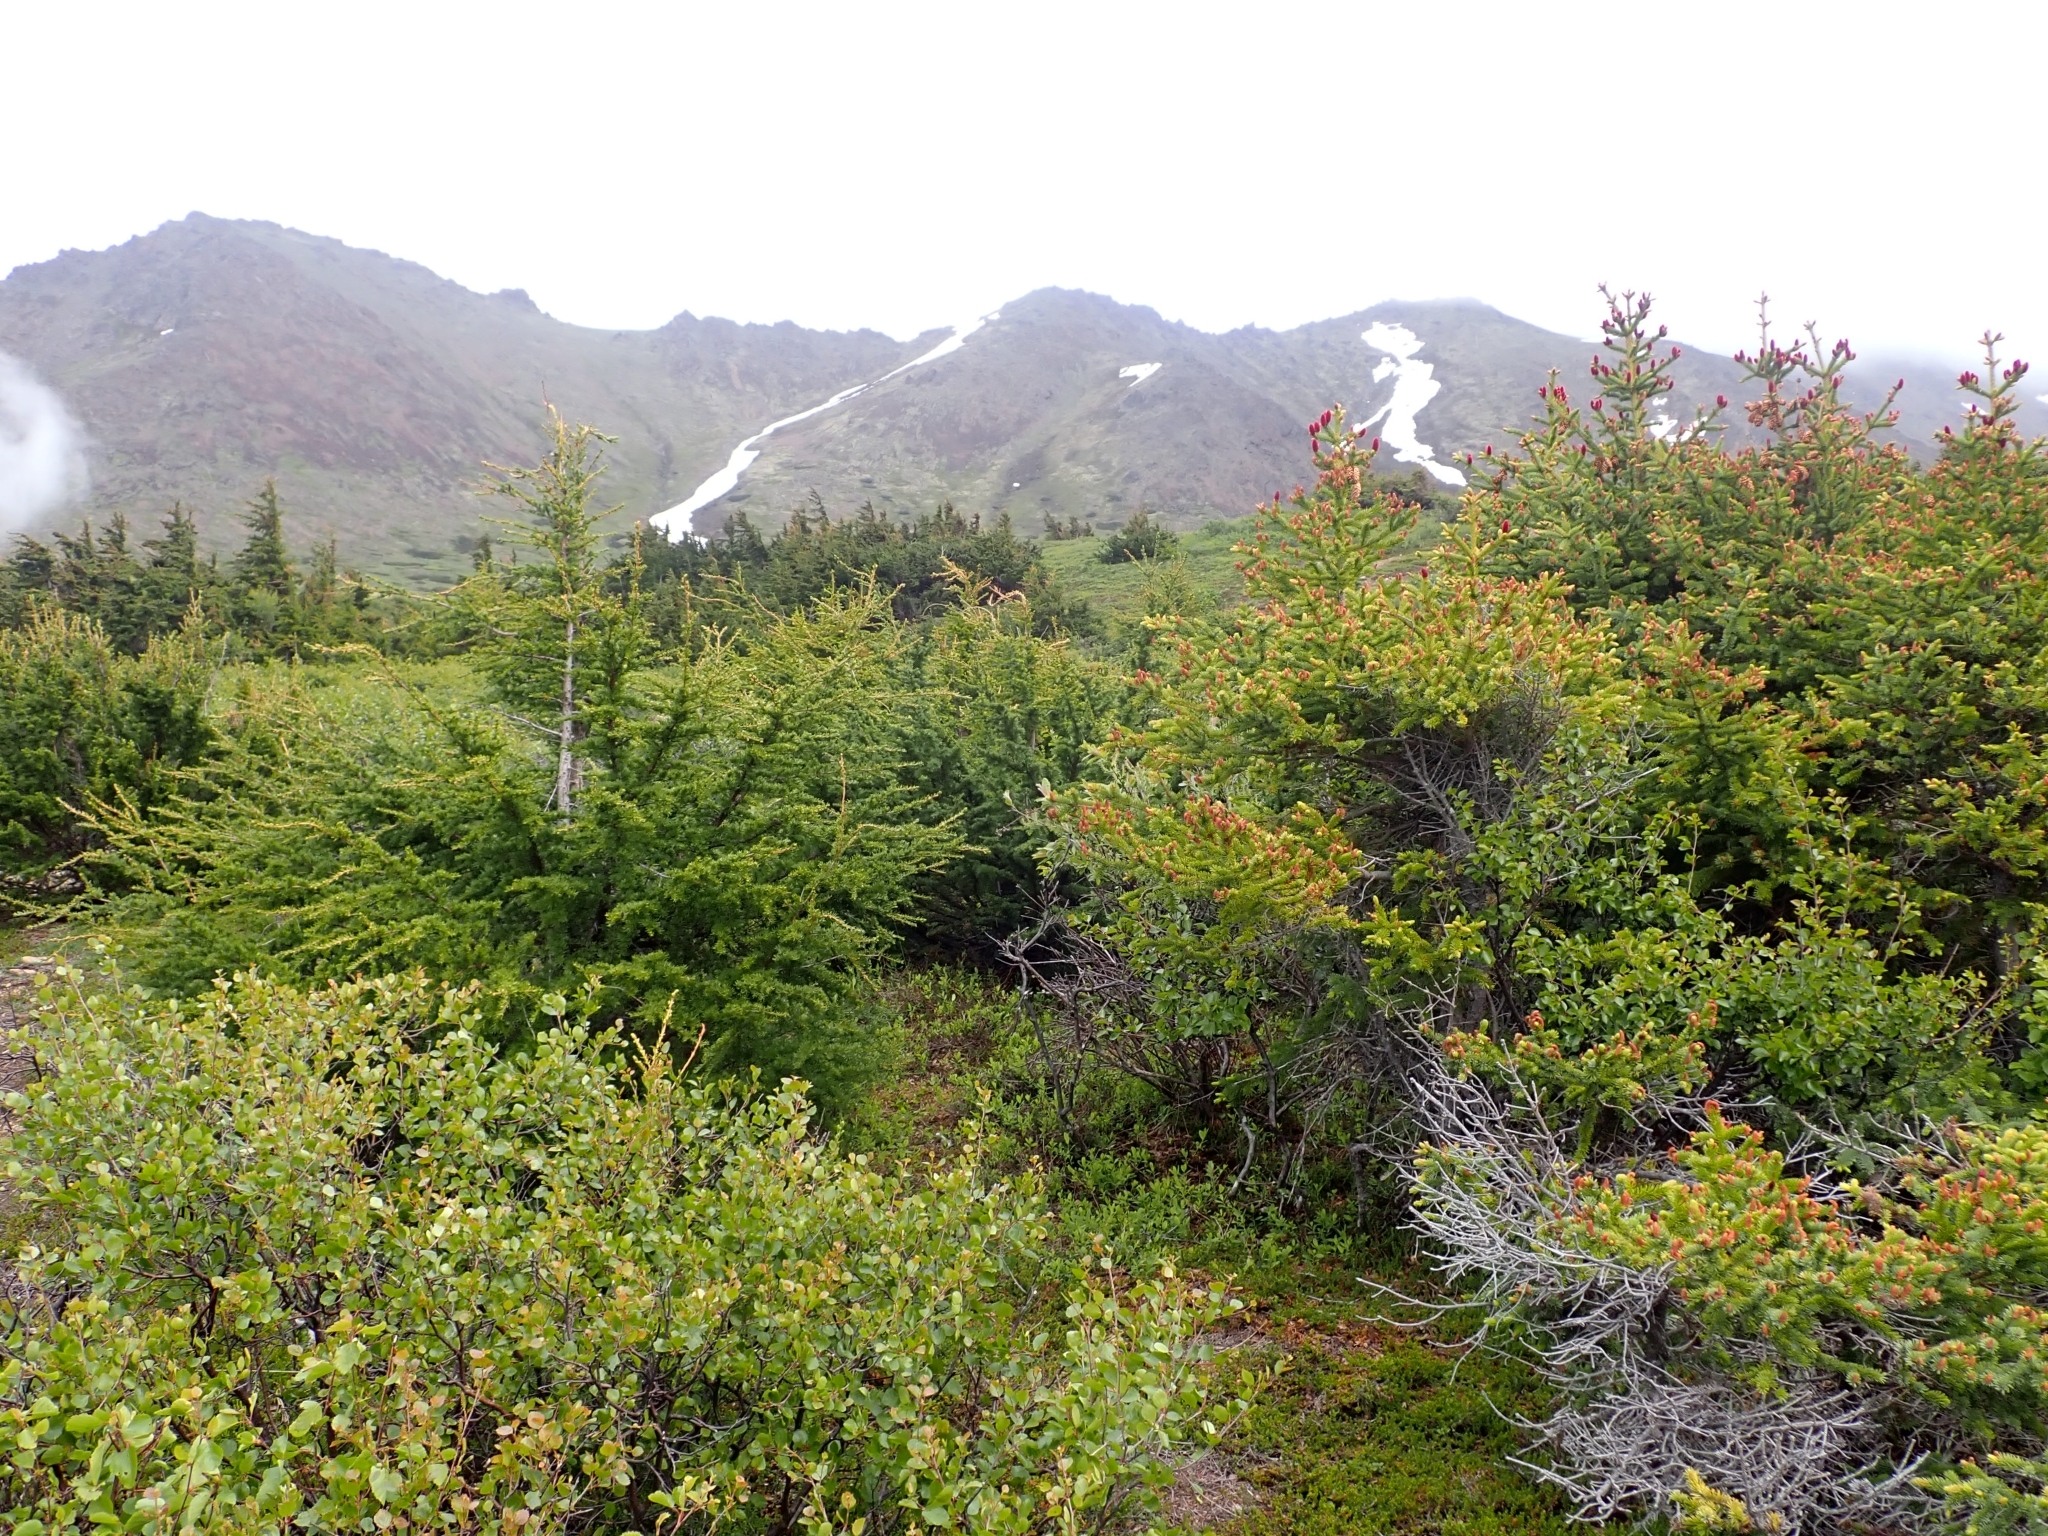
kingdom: Plantae
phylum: Tracheophyta
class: Pinopsida
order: Pinales
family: Pinaceae
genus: Picea
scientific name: Picea glauca
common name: White spruce
